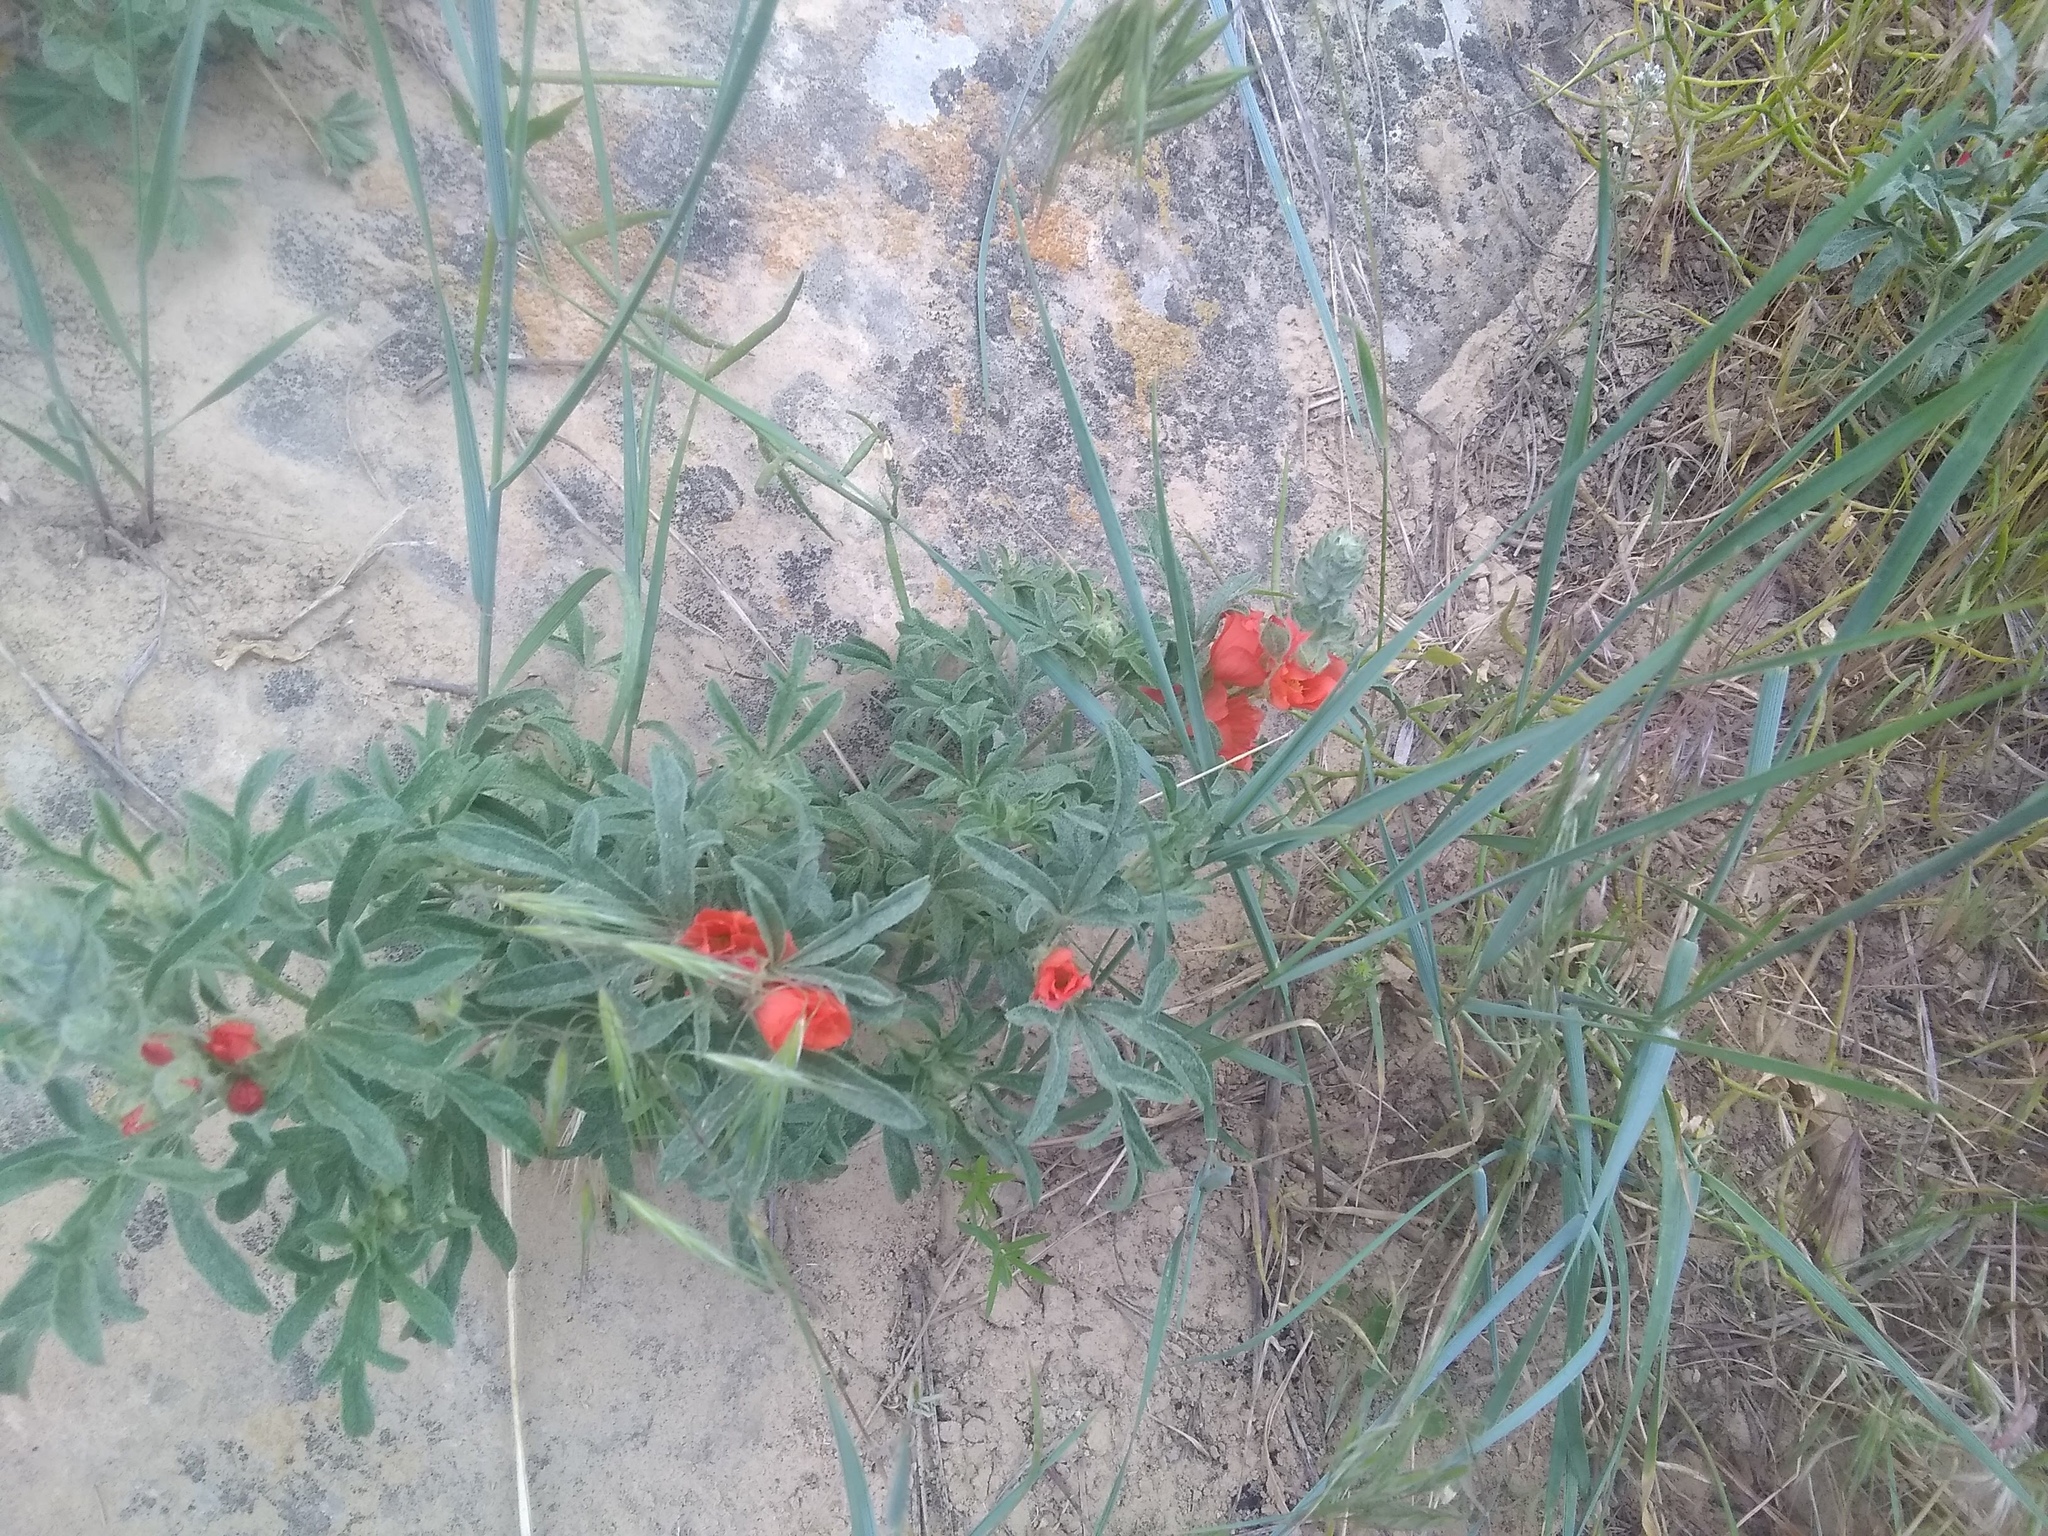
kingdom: Plantae
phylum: Tracheophyta
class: Magnoliopsida
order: Malvales
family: Malvaceae
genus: Sphaeralcea
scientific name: Sphaeralcea coccinea
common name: Moss-rose
